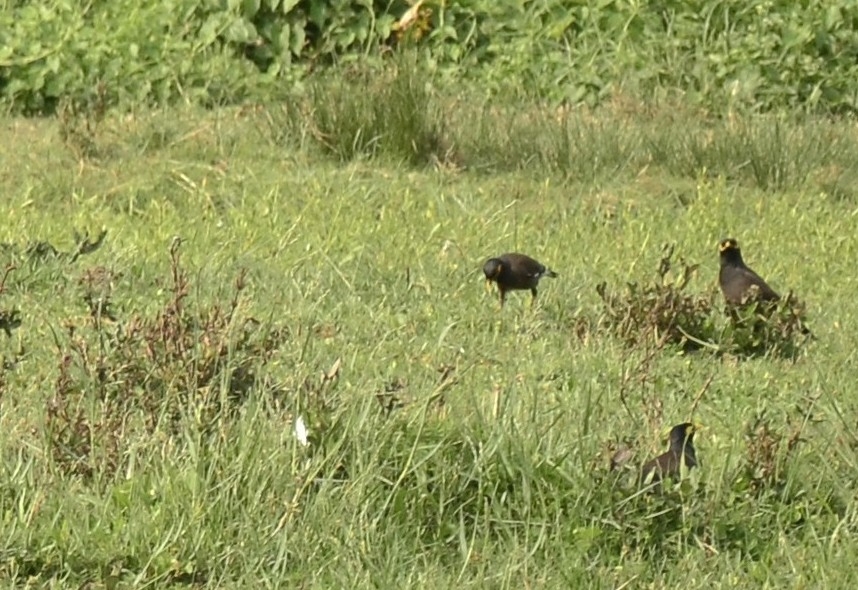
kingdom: Animalia
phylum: Chordata
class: Aves
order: Passeriformes
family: Sturnidae
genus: Acridotheres
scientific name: Acridotheres tristis
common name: Common myna
